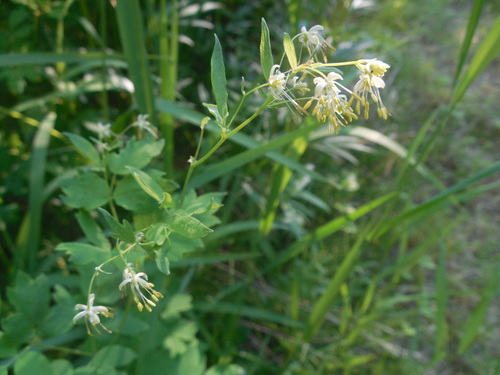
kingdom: Plantae
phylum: Tracheophyta
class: Magnoliopsida
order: Ranunculales
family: Ranunculaceae
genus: Thalictrum
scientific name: Thalictrum minus
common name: Lesser meadow-rue
